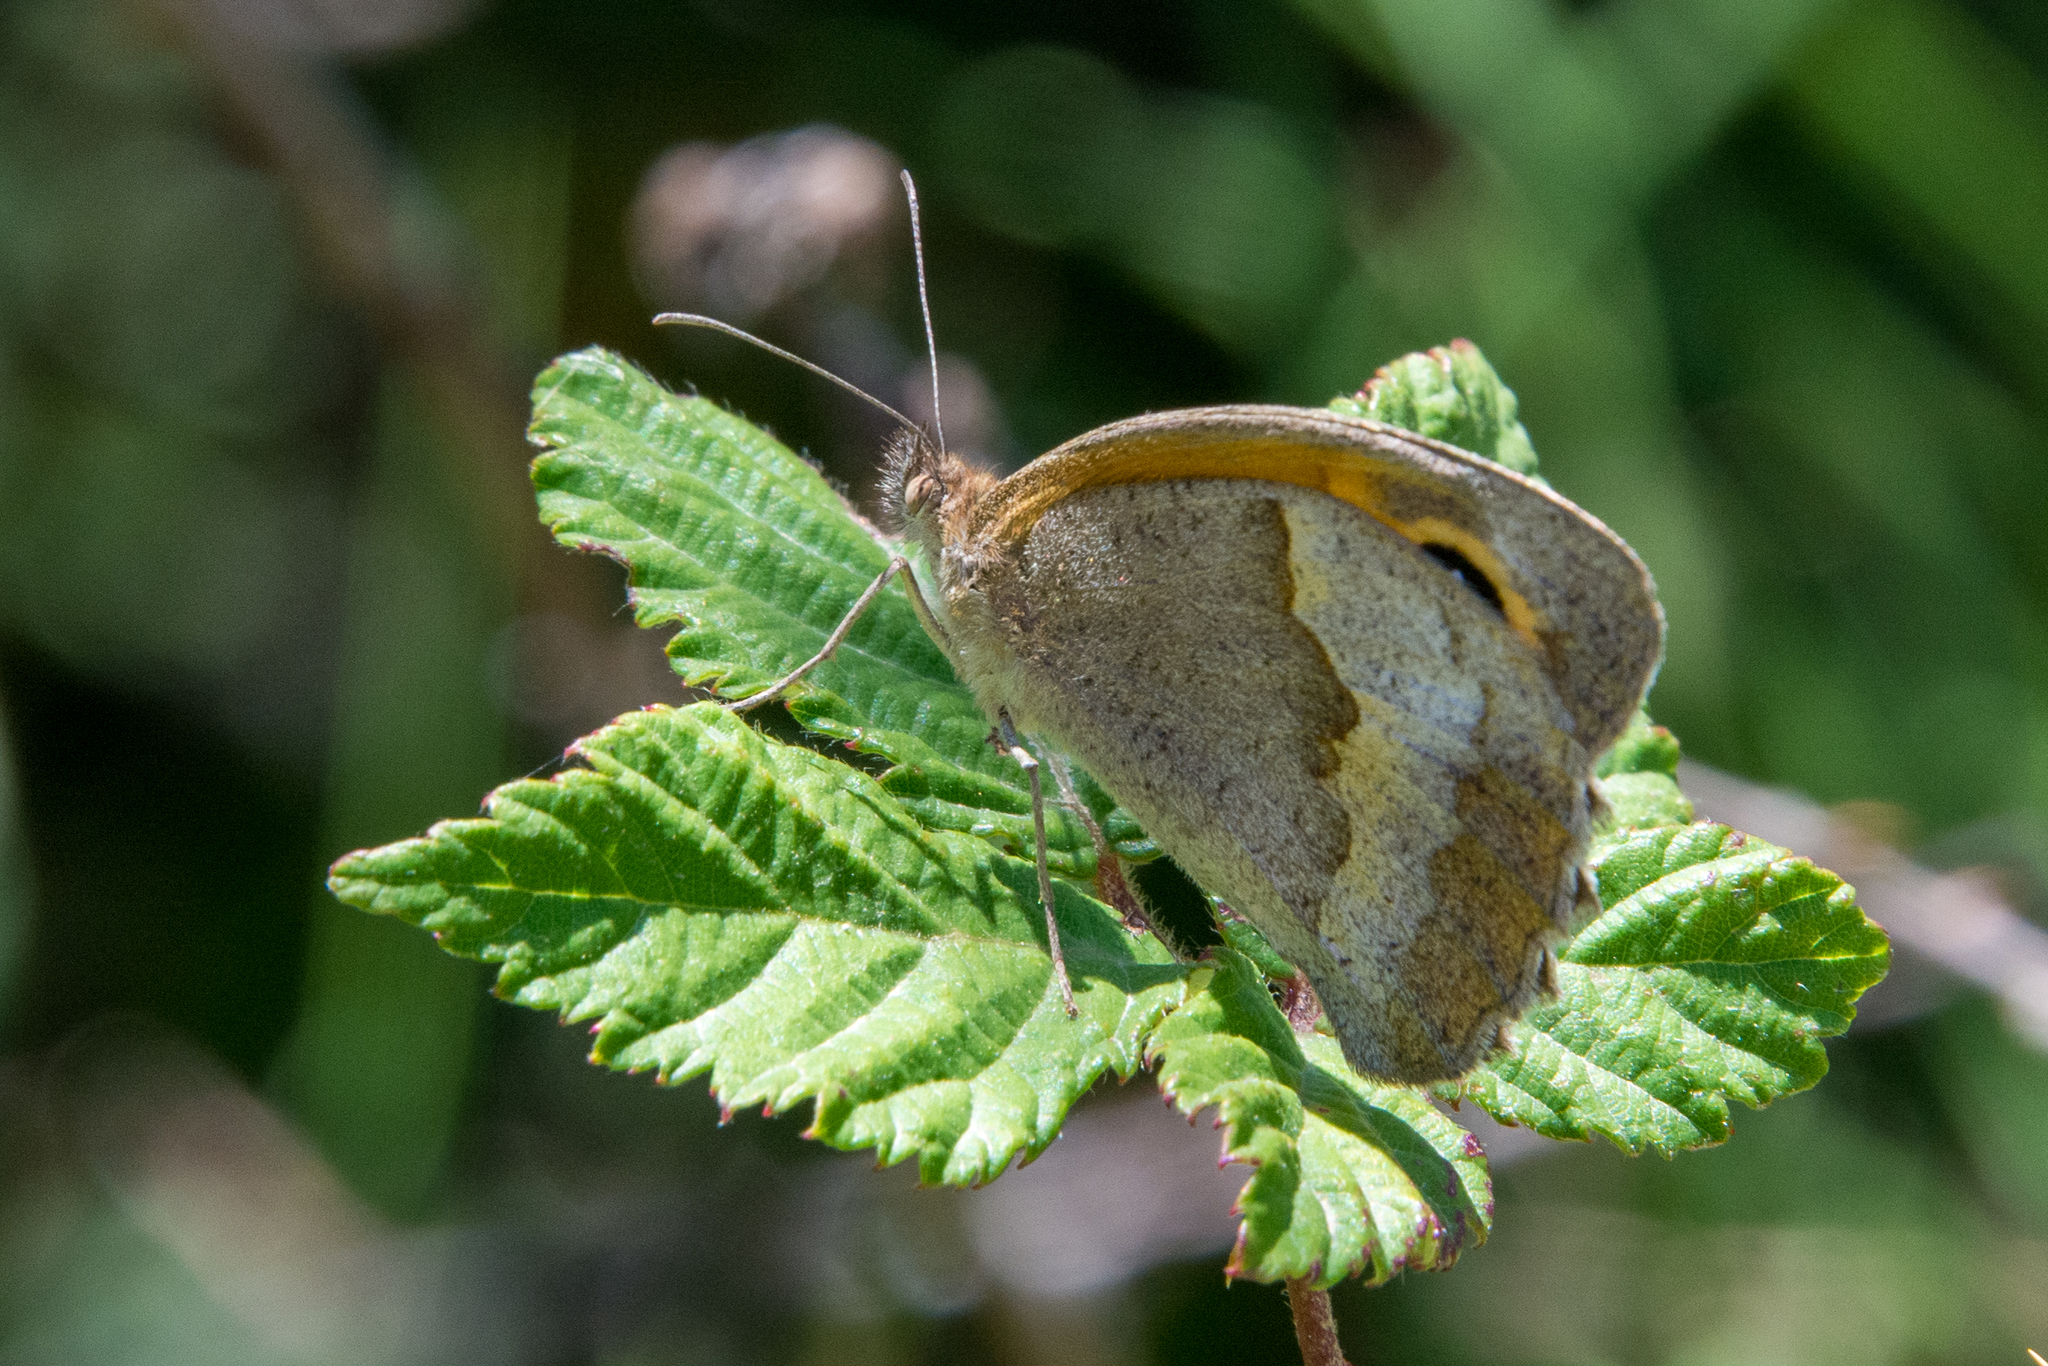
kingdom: Animalia
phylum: Arthropoda
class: Insecta
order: Lepidoptera
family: Nymphalidae
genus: Maniola
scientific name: Maniola jurtina
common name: Meadow brown
